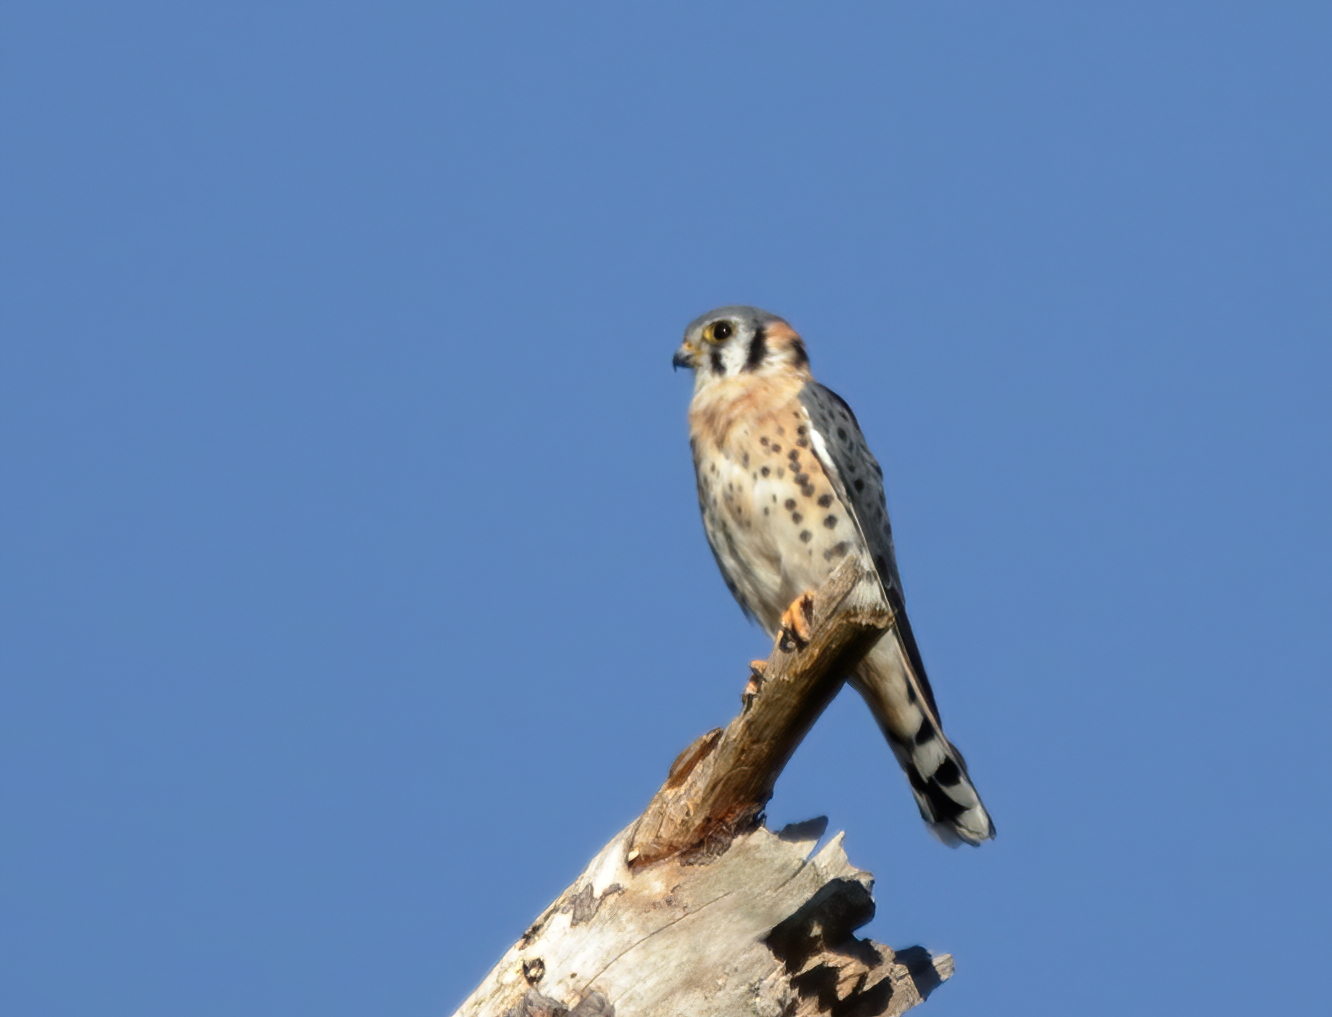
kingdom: Animalia
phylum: Chordata
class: Aves
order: Falconiformes
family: Falconidae
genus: Falco
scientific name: Falco sparverius
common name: American kestrel
